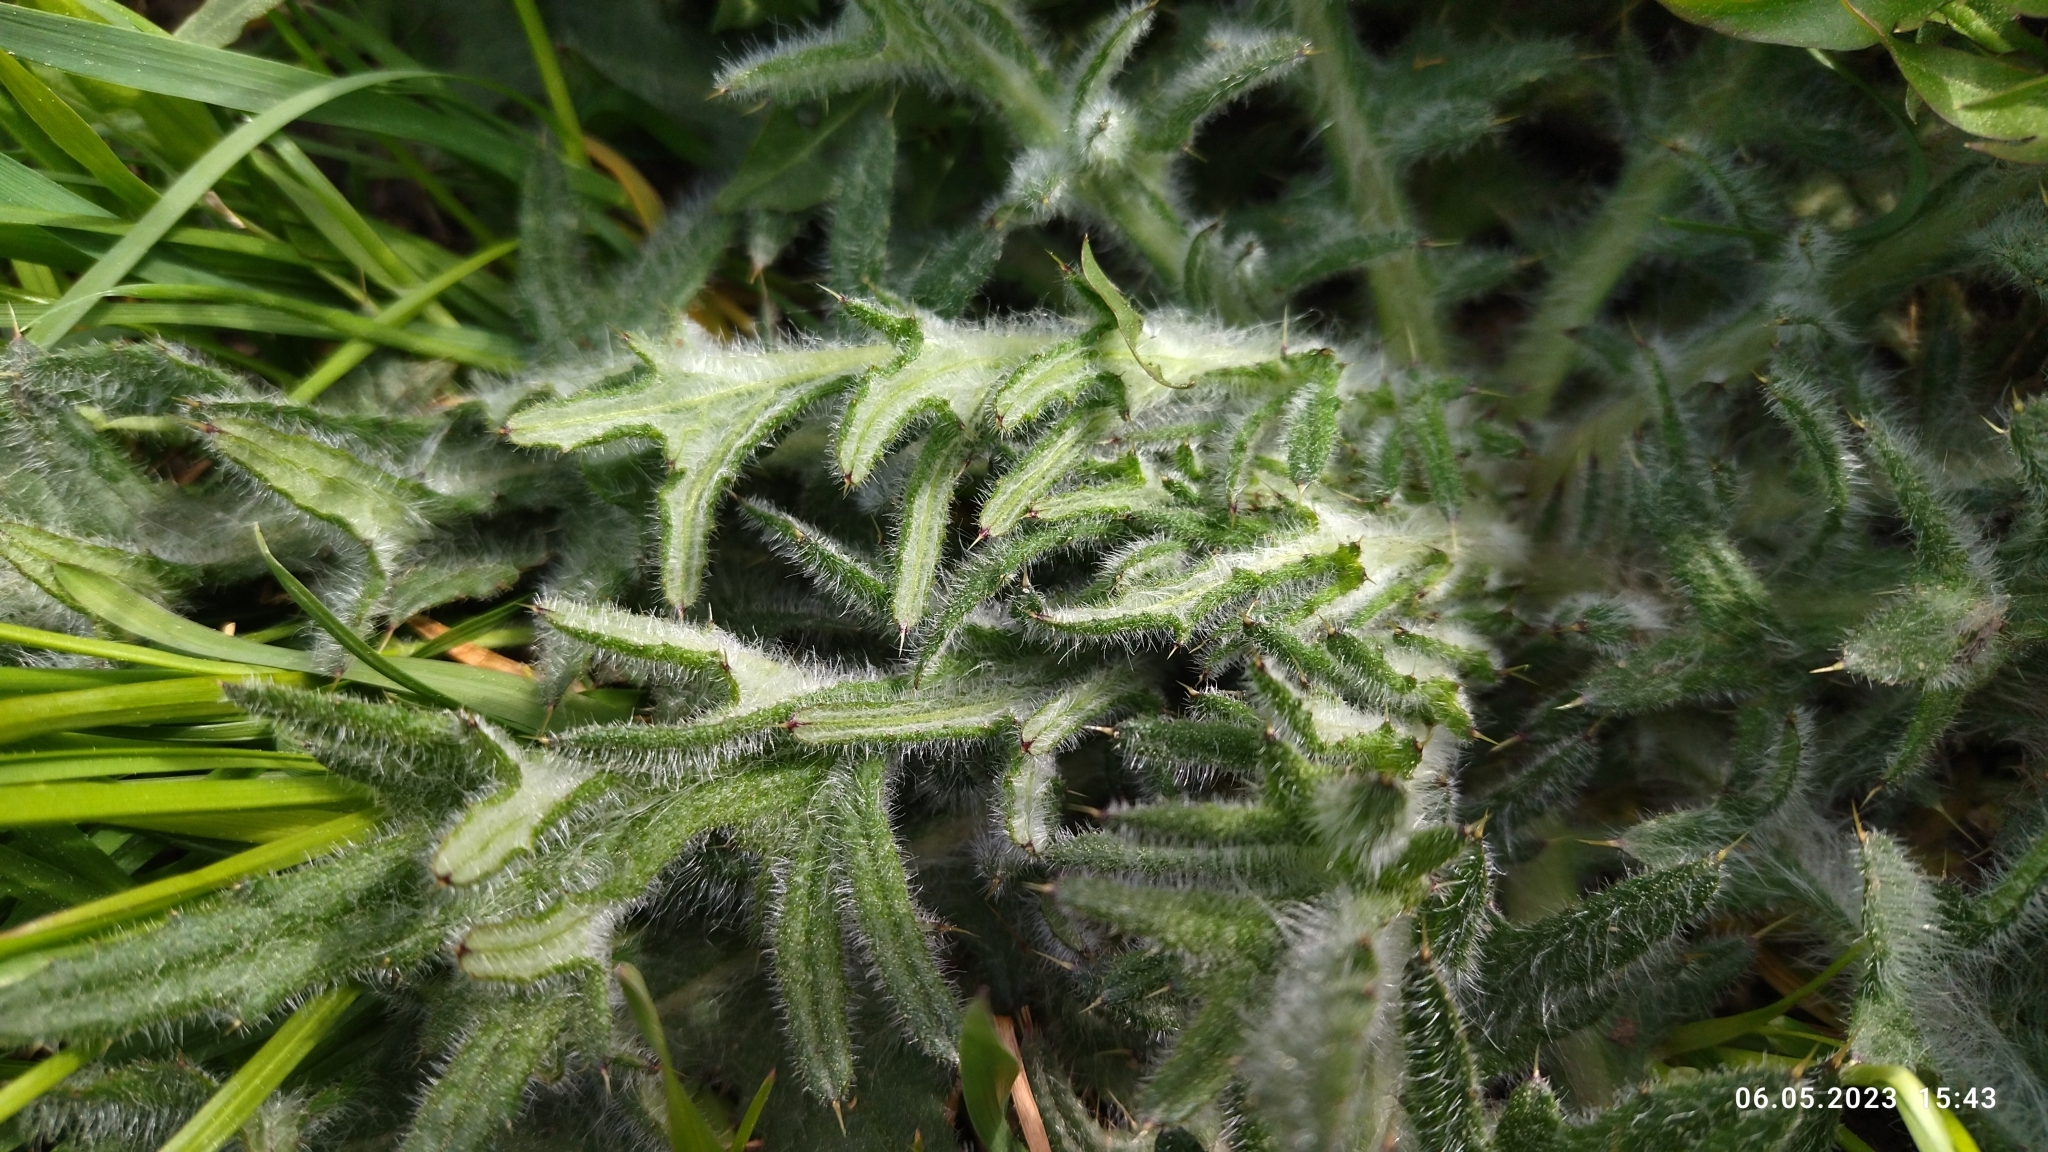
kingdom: Plantae
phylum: Tracheophyta
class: Magnoliopsida
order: Asterales
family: Asteraceae
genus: Cirsium
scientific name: Cirsium vulgare
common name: Bull thistle
